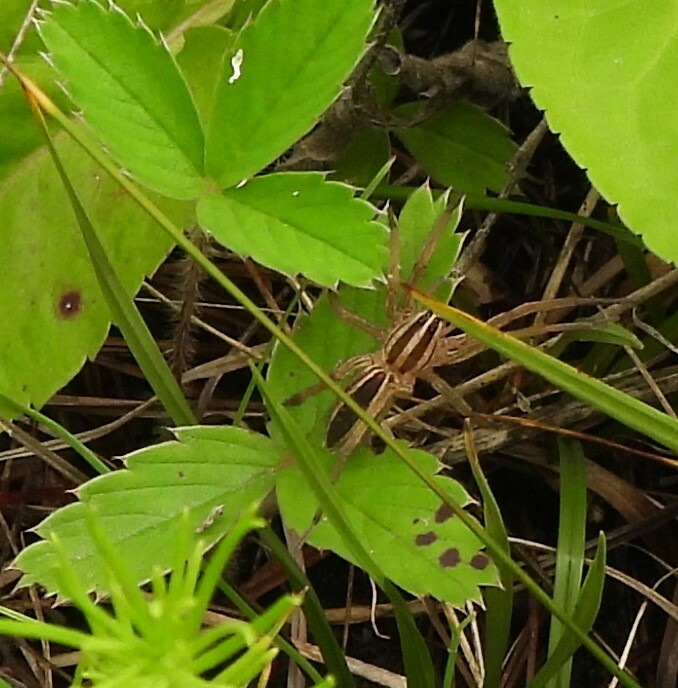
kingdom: Animalia
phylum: Arthropoda
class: Arachnida
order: Araneae
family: Lycosidae
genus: Rabidosa
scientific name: Rabidosa rabida
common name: Rabid wolf spider
